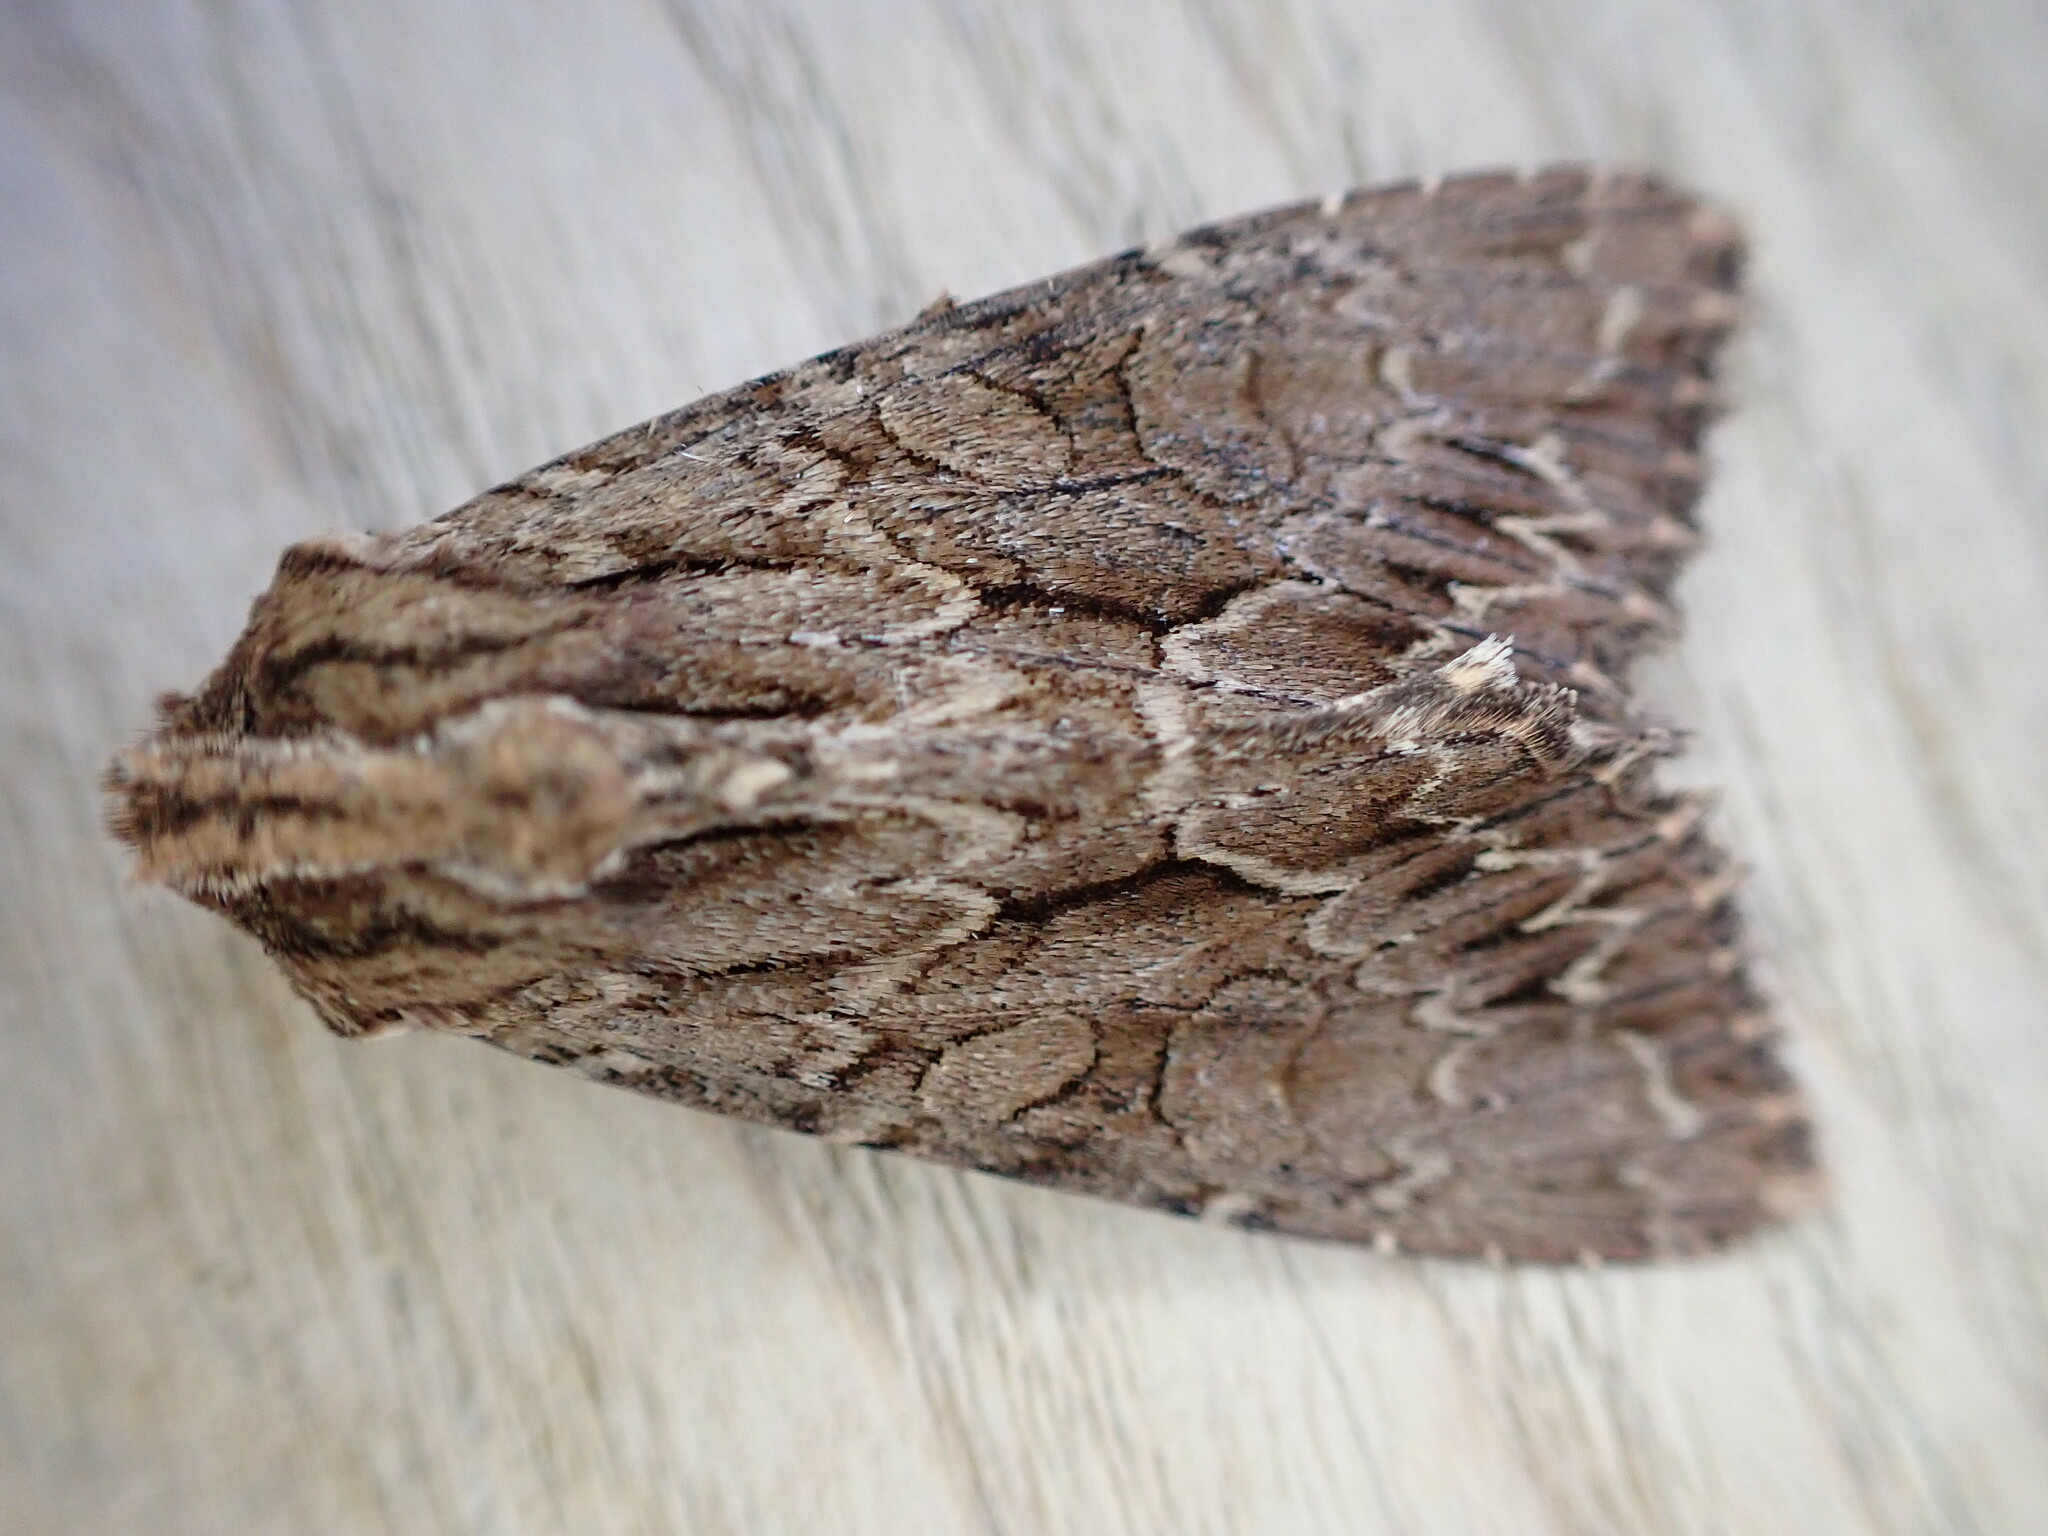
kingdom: Animalia
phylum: Arthropoda
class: Insecta
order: Lepidoptera
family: Noctuidae
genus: Apamea
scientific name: Apamea monoglypha
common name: Dark arches
